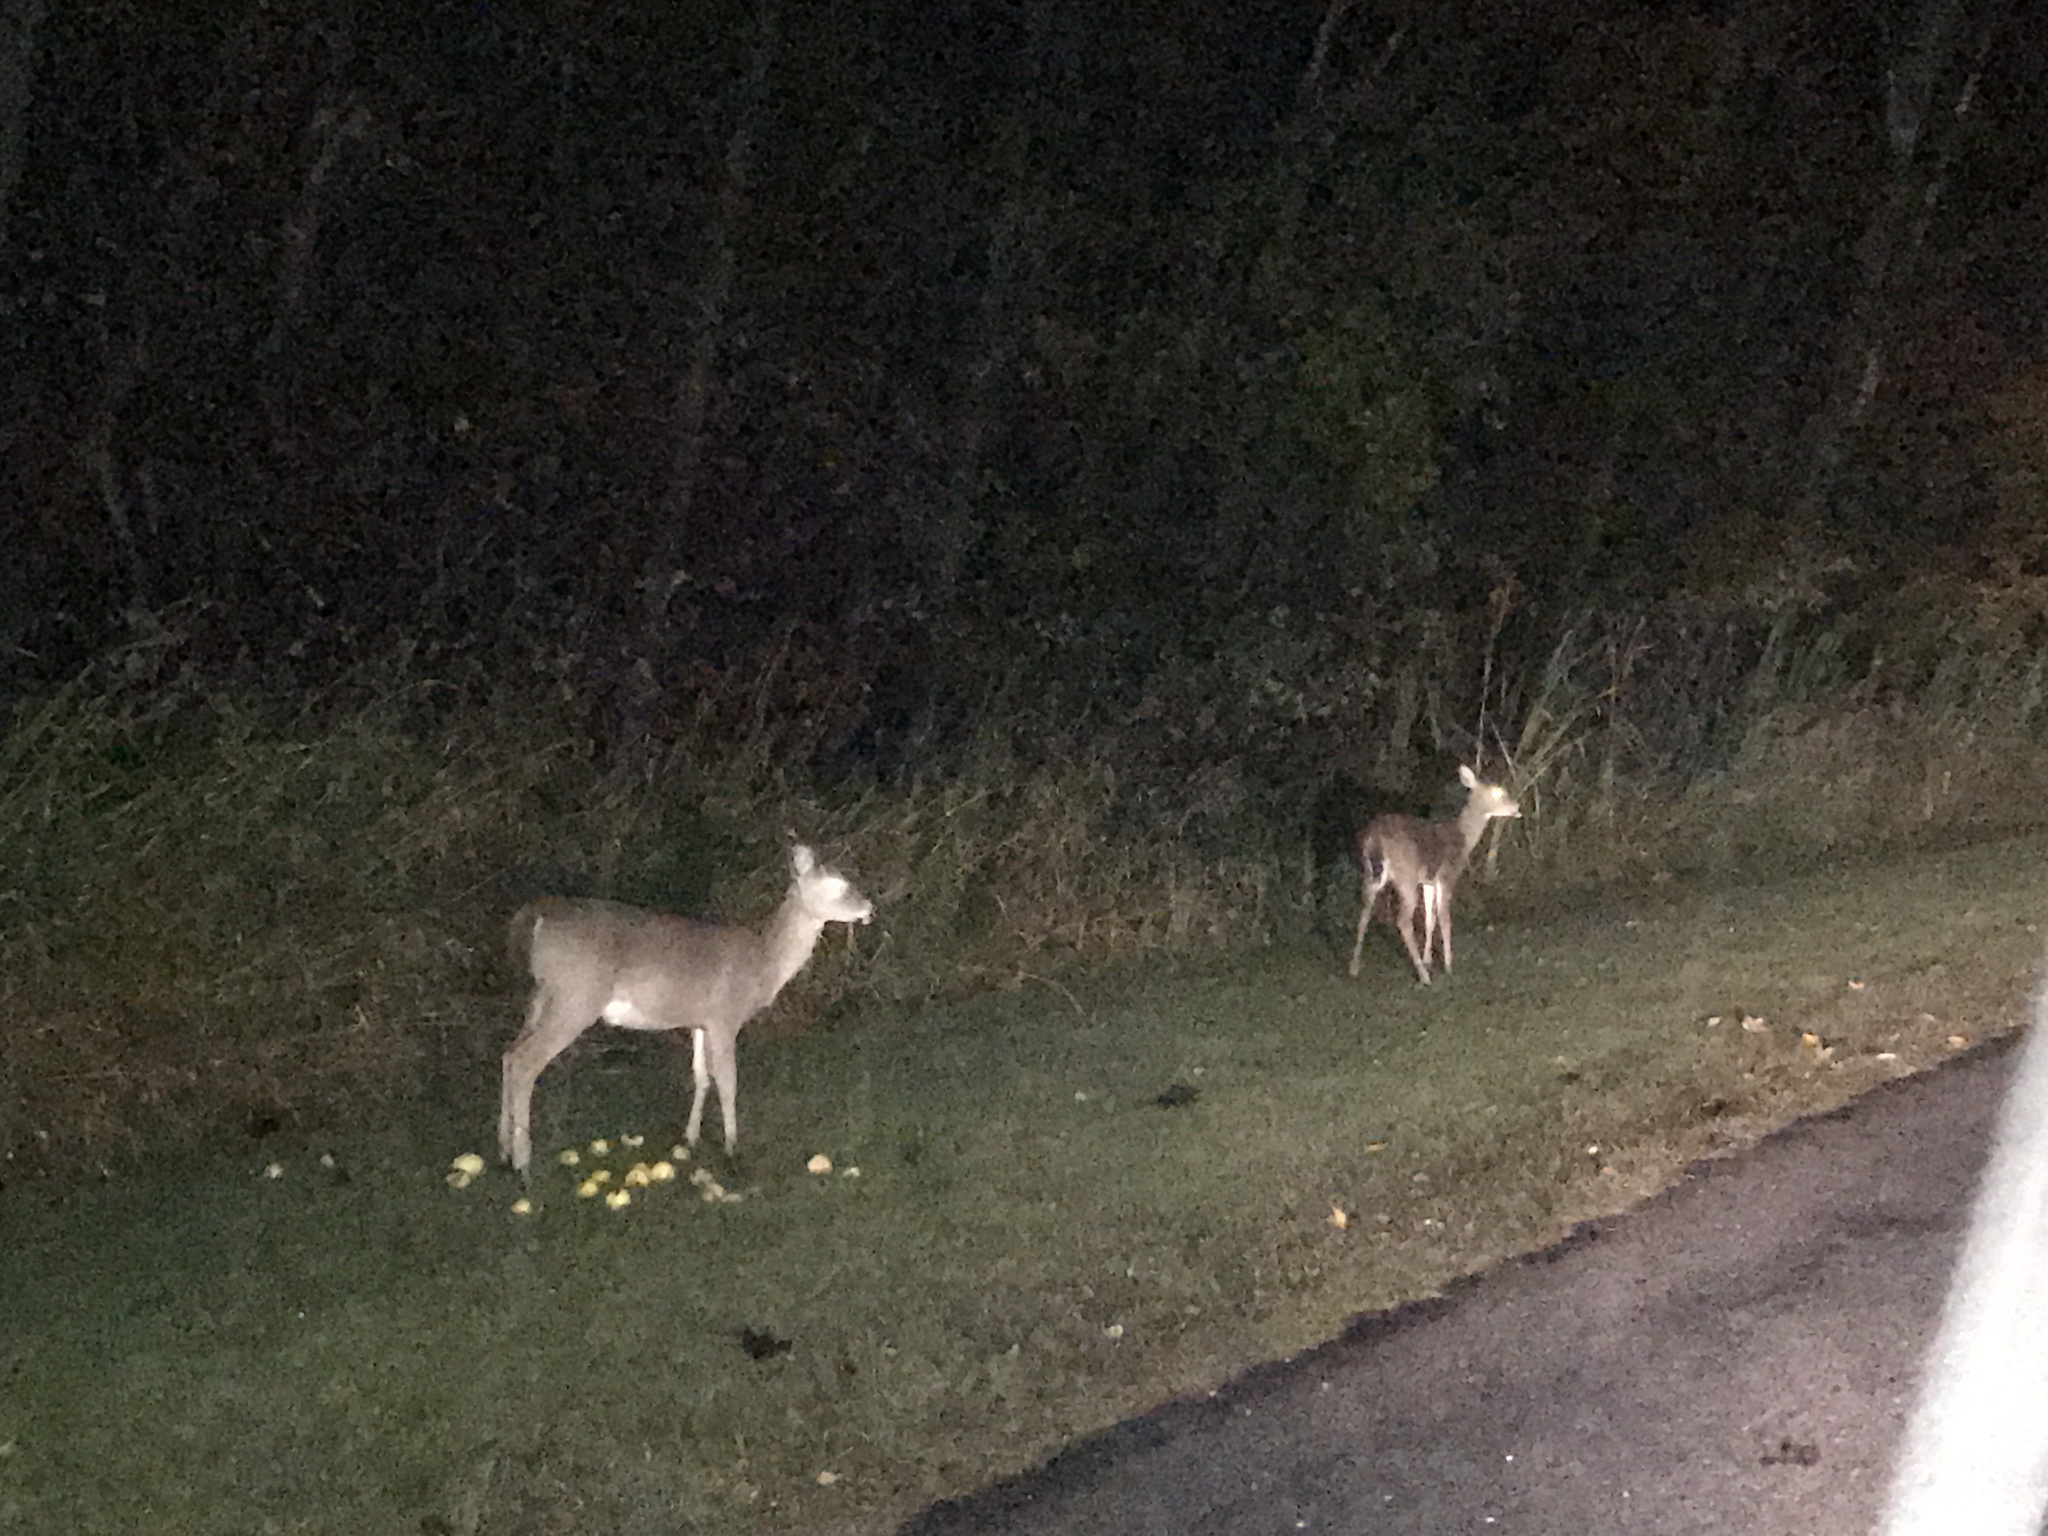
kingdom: Animalia
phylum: Chordata
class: Mammalia
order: Artiodactyla
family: Cervidae
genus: Odocoileus
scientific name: Odocoileus virginianus
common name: White-tailed deer
